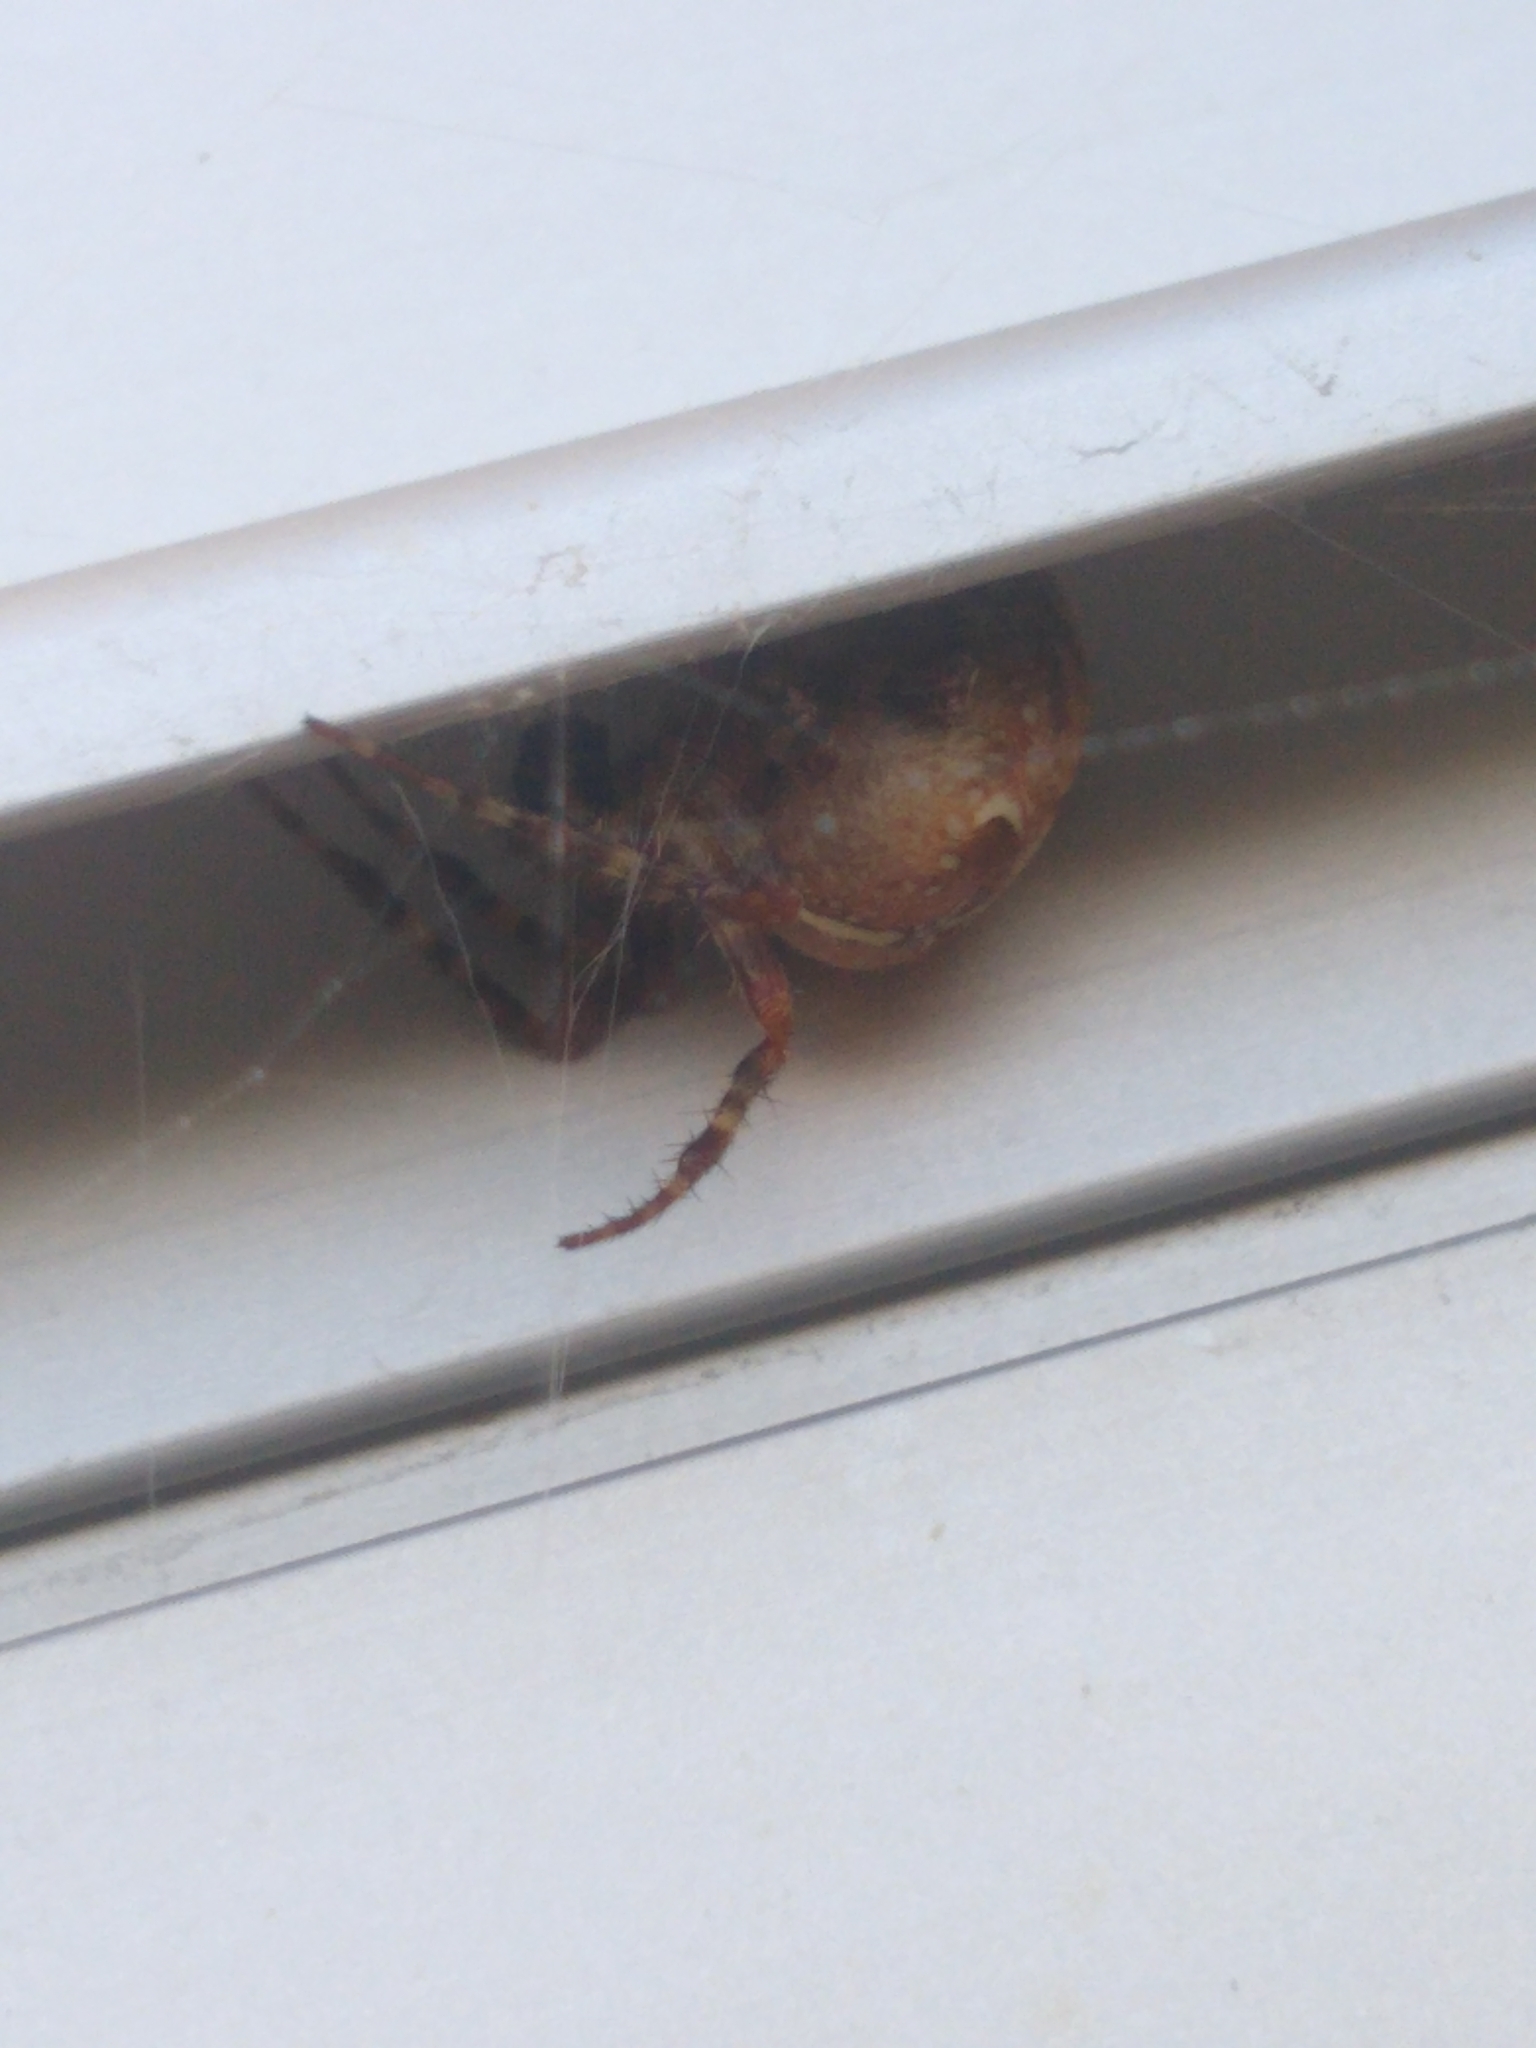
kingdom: Animalia
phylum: Arthropoda
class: Arachnida
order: Araneae
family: Araneidae
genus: Araneus
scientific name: Araneus diadematus
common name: Cross orbweaver
